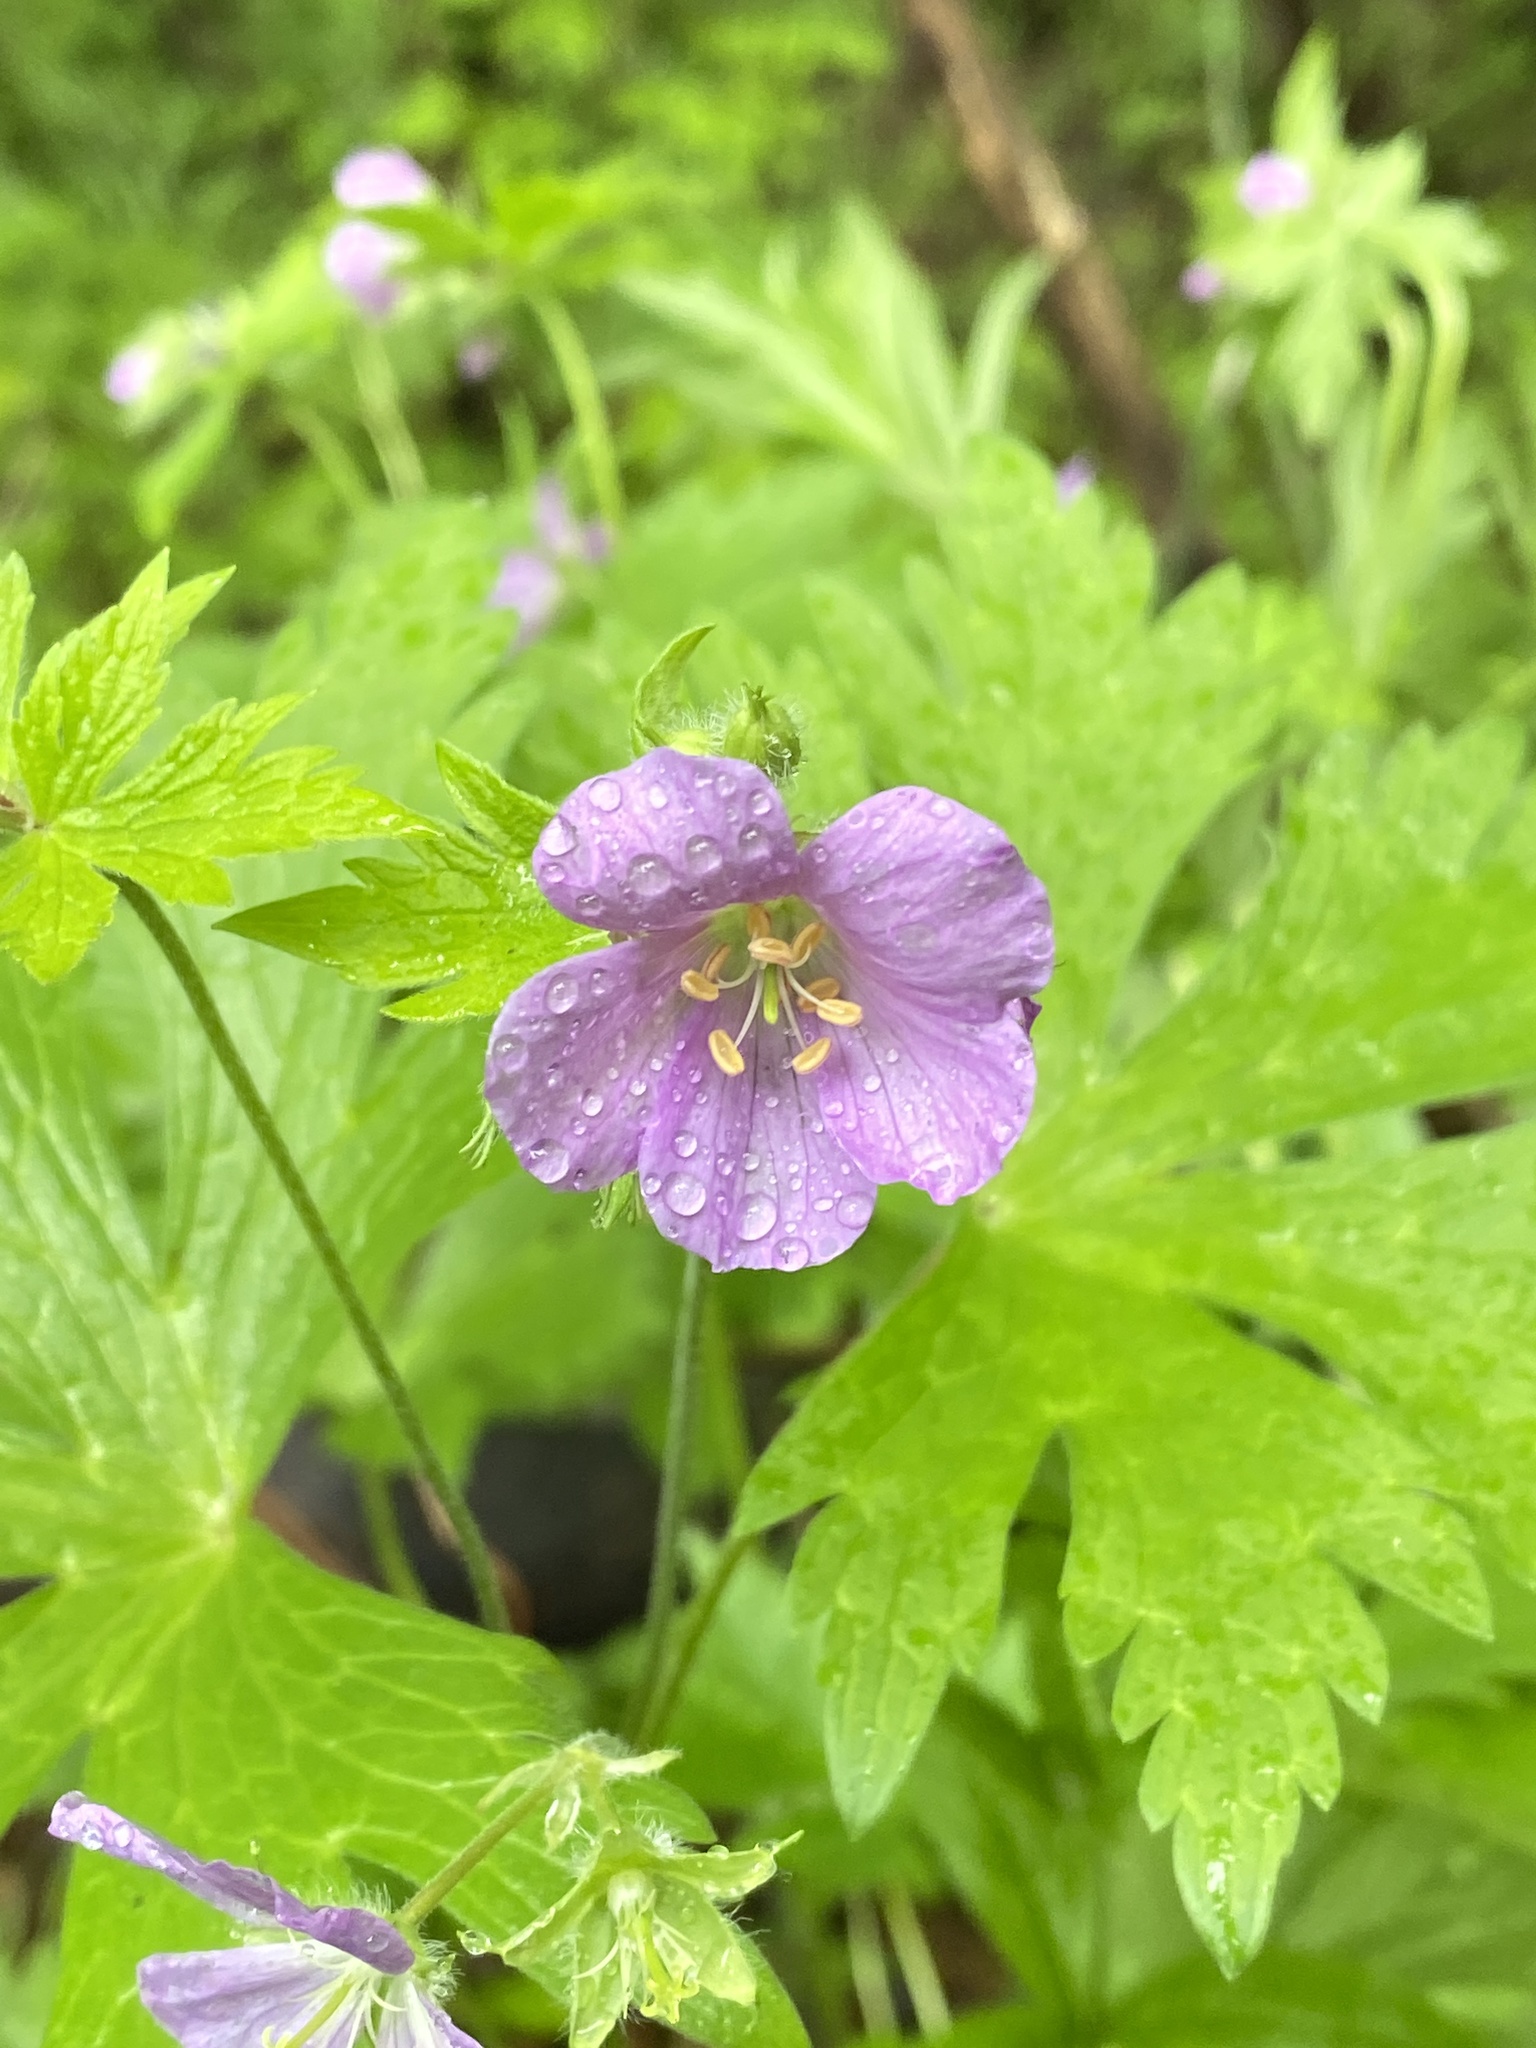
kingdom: Plantae
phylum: Tracheophyta
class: Magnoliopsida
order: Geraniales
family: Geraniaceae
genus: Geranium
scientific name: Geranium maculatum
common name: Spotted geranium
